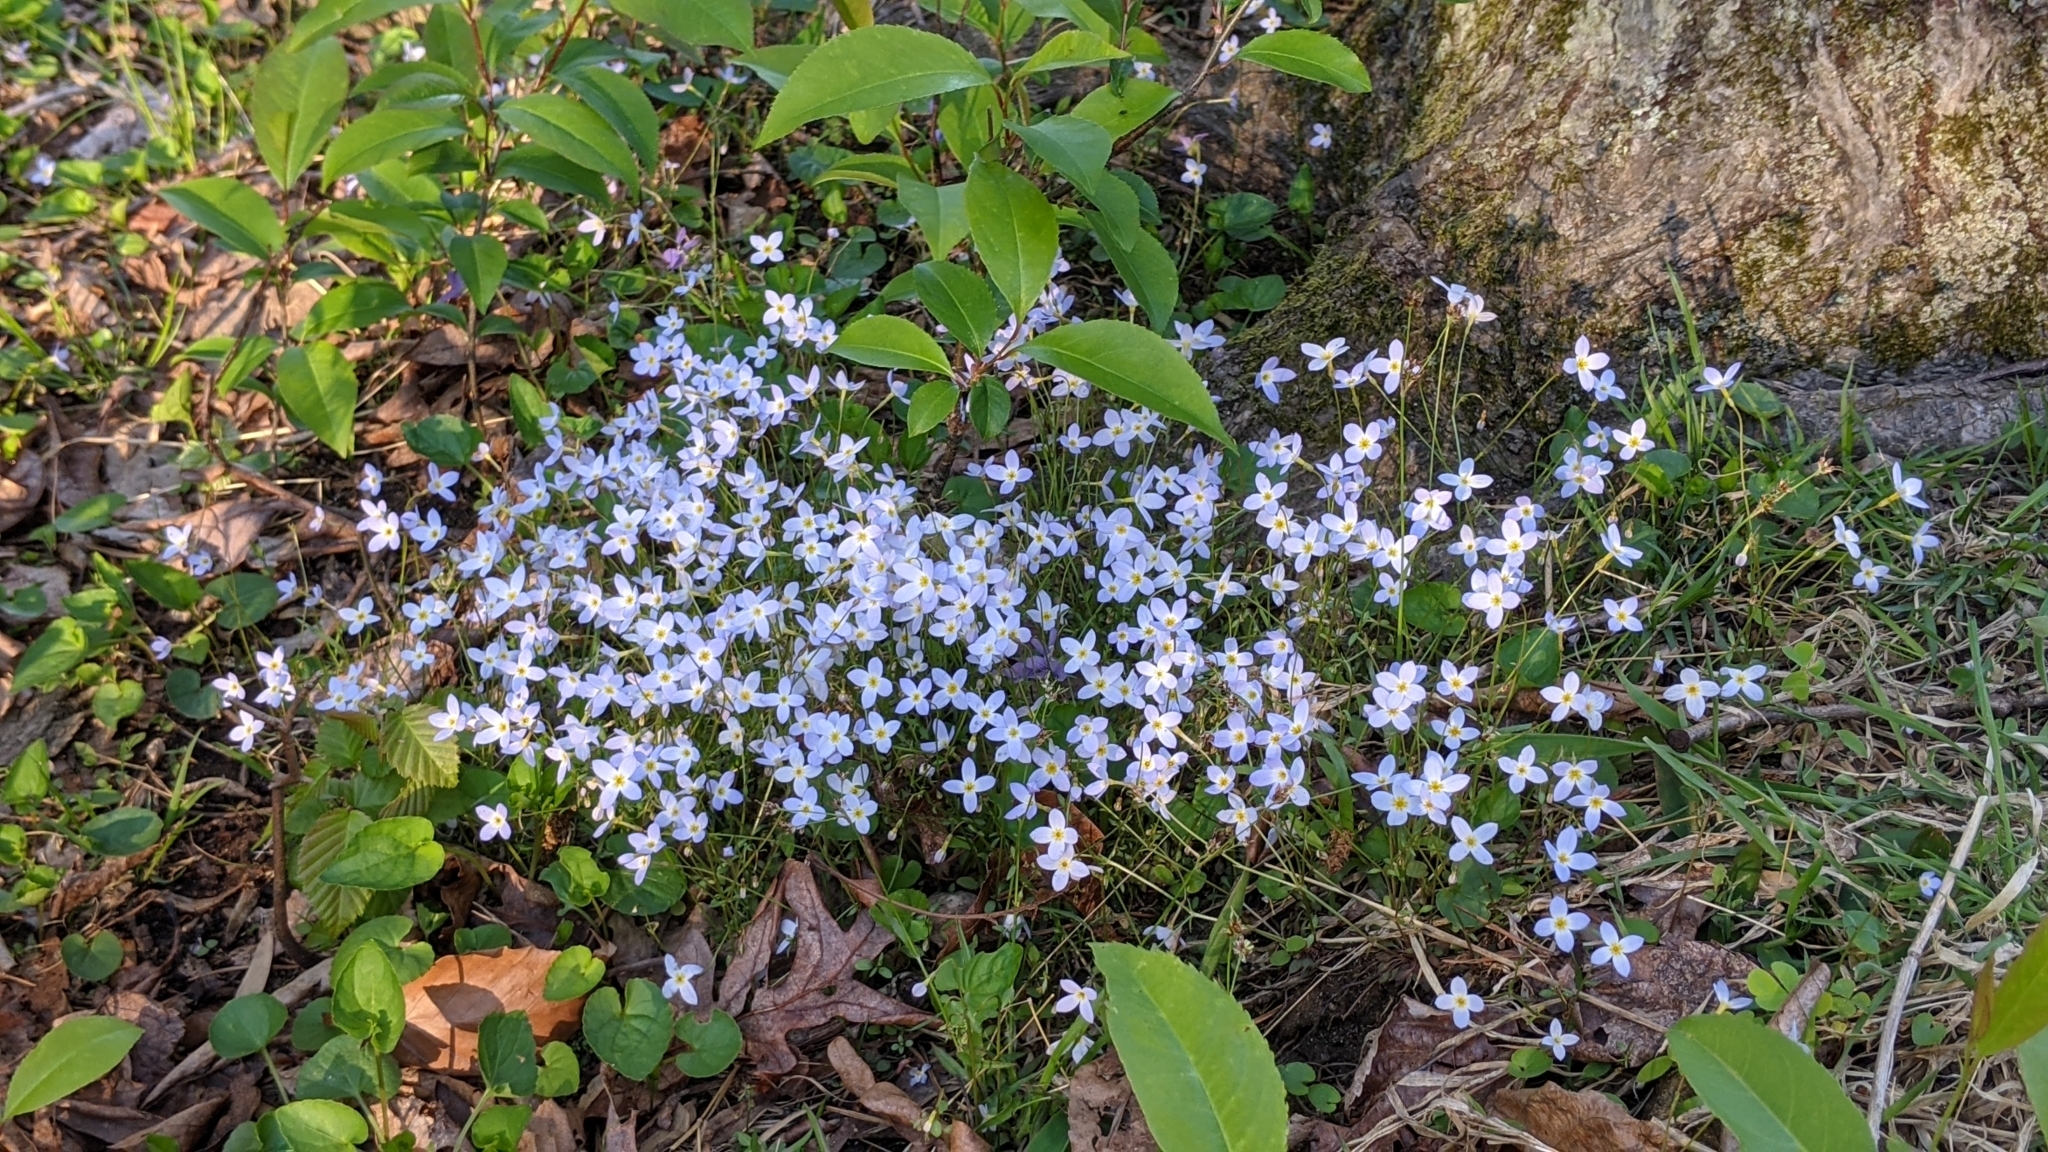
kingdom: Plantae
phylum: Tracheophyta
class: Magnoliopsida
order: Gentianales
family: Rubiaceae
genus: Houstonia
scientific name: Houstonia caerulea
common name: Bluets
